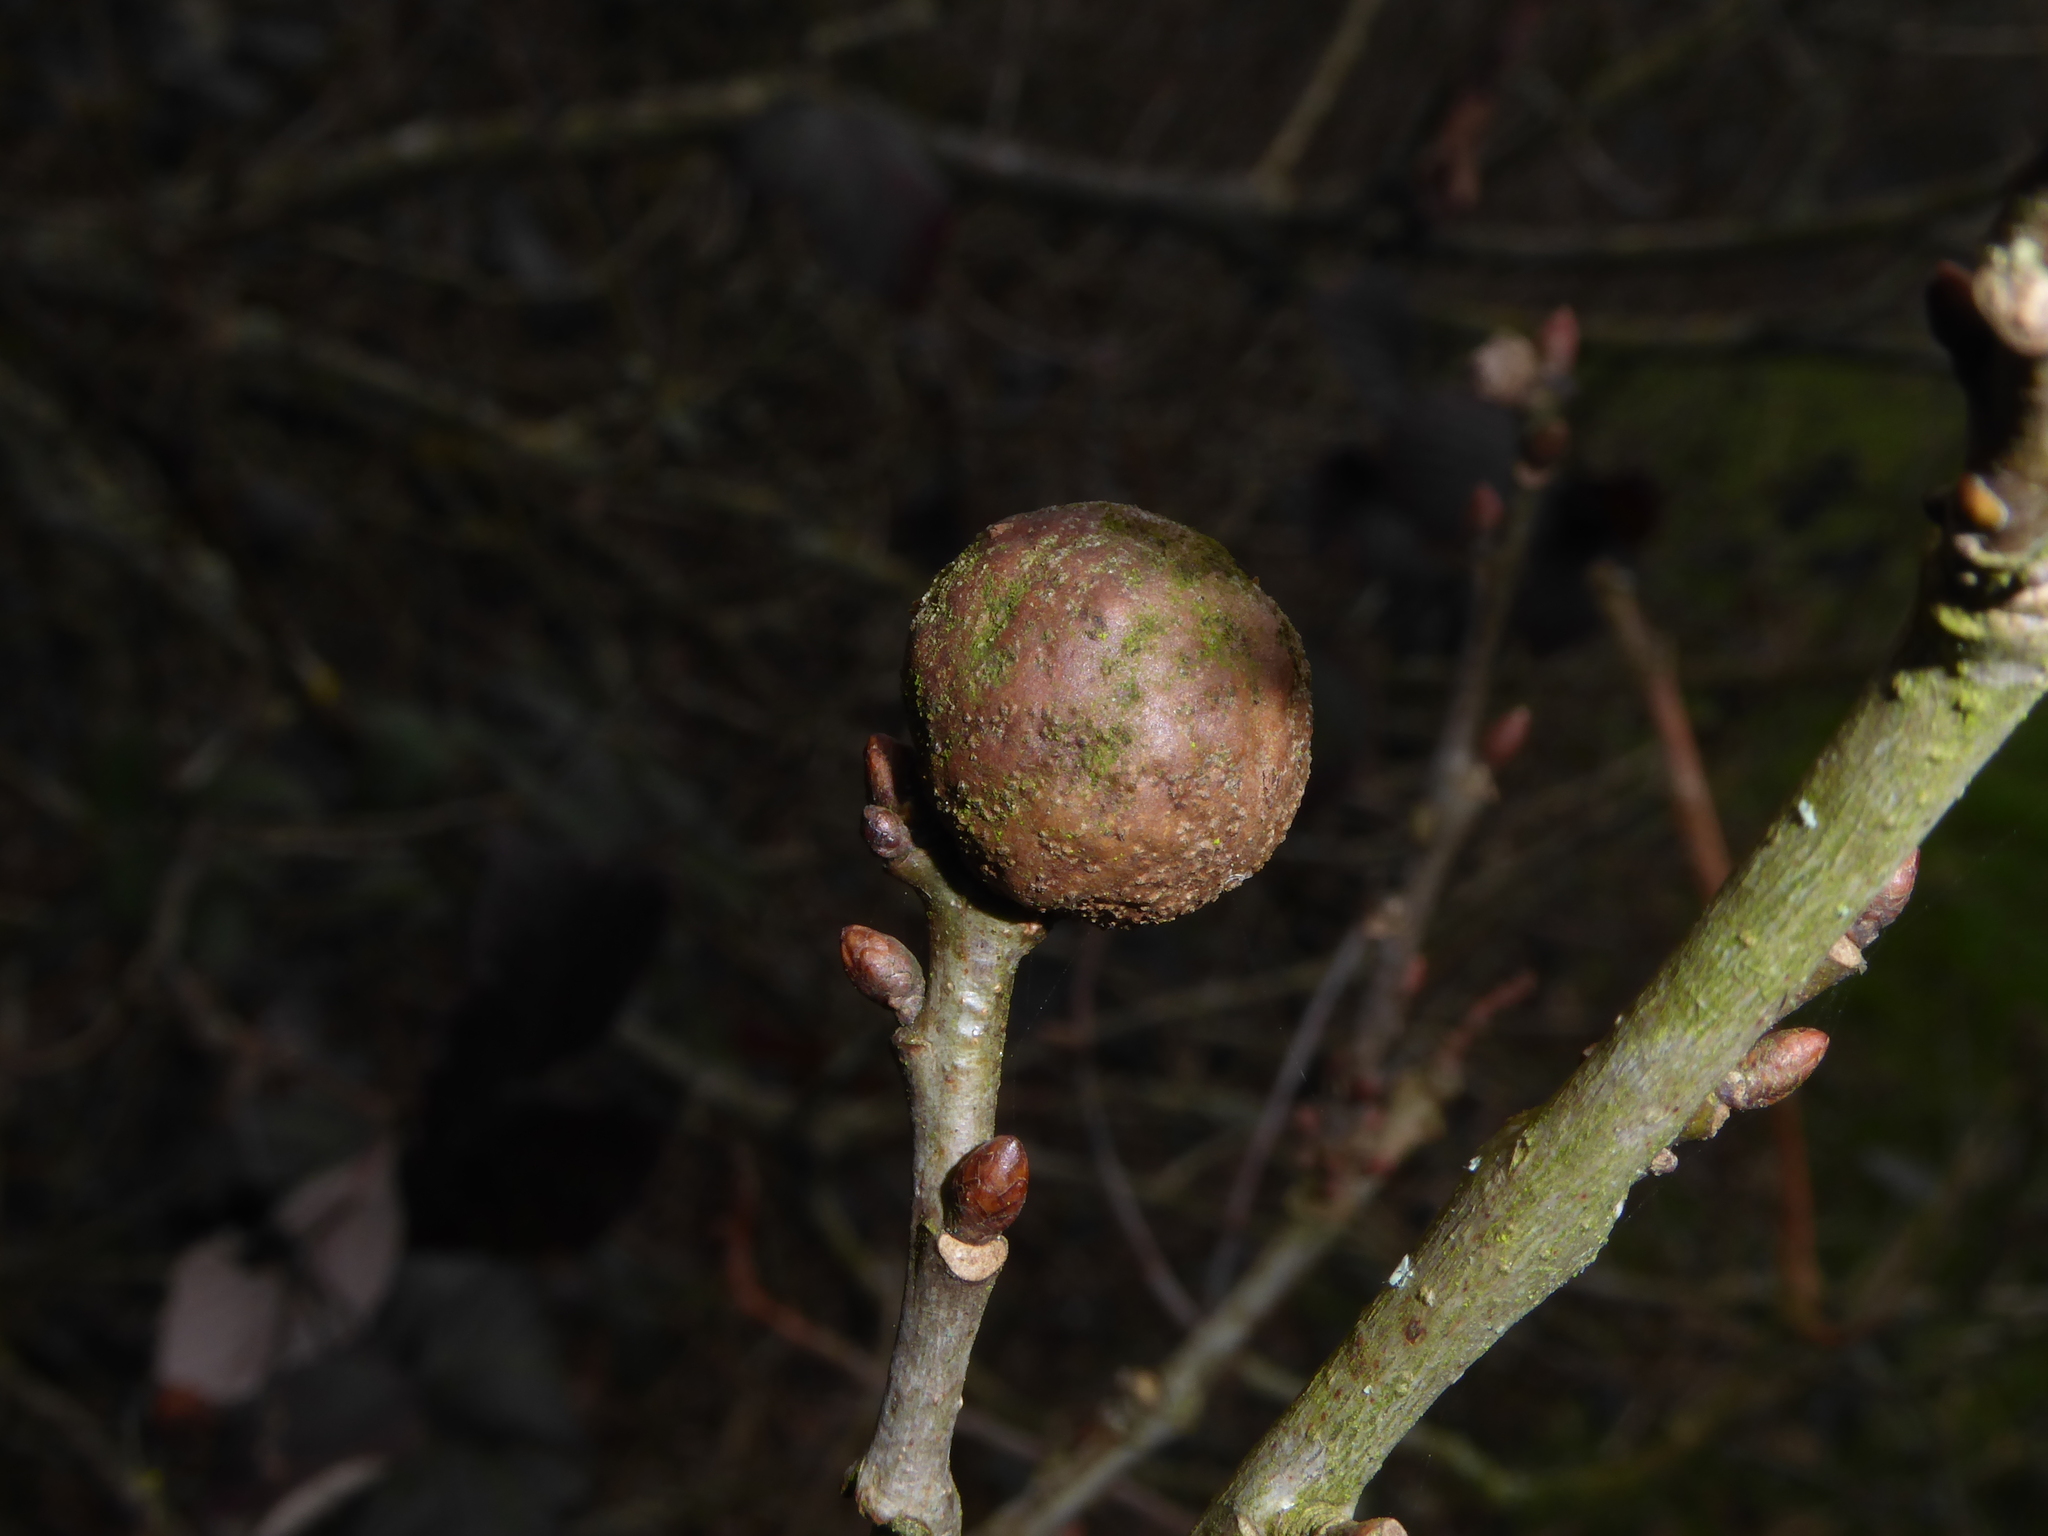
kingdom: Animalia
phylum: Arthropoda
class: Insecta
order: Hymenoptera
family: Cynipidae
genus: Andricus
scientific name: Andricus kollari
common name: Marble gall
